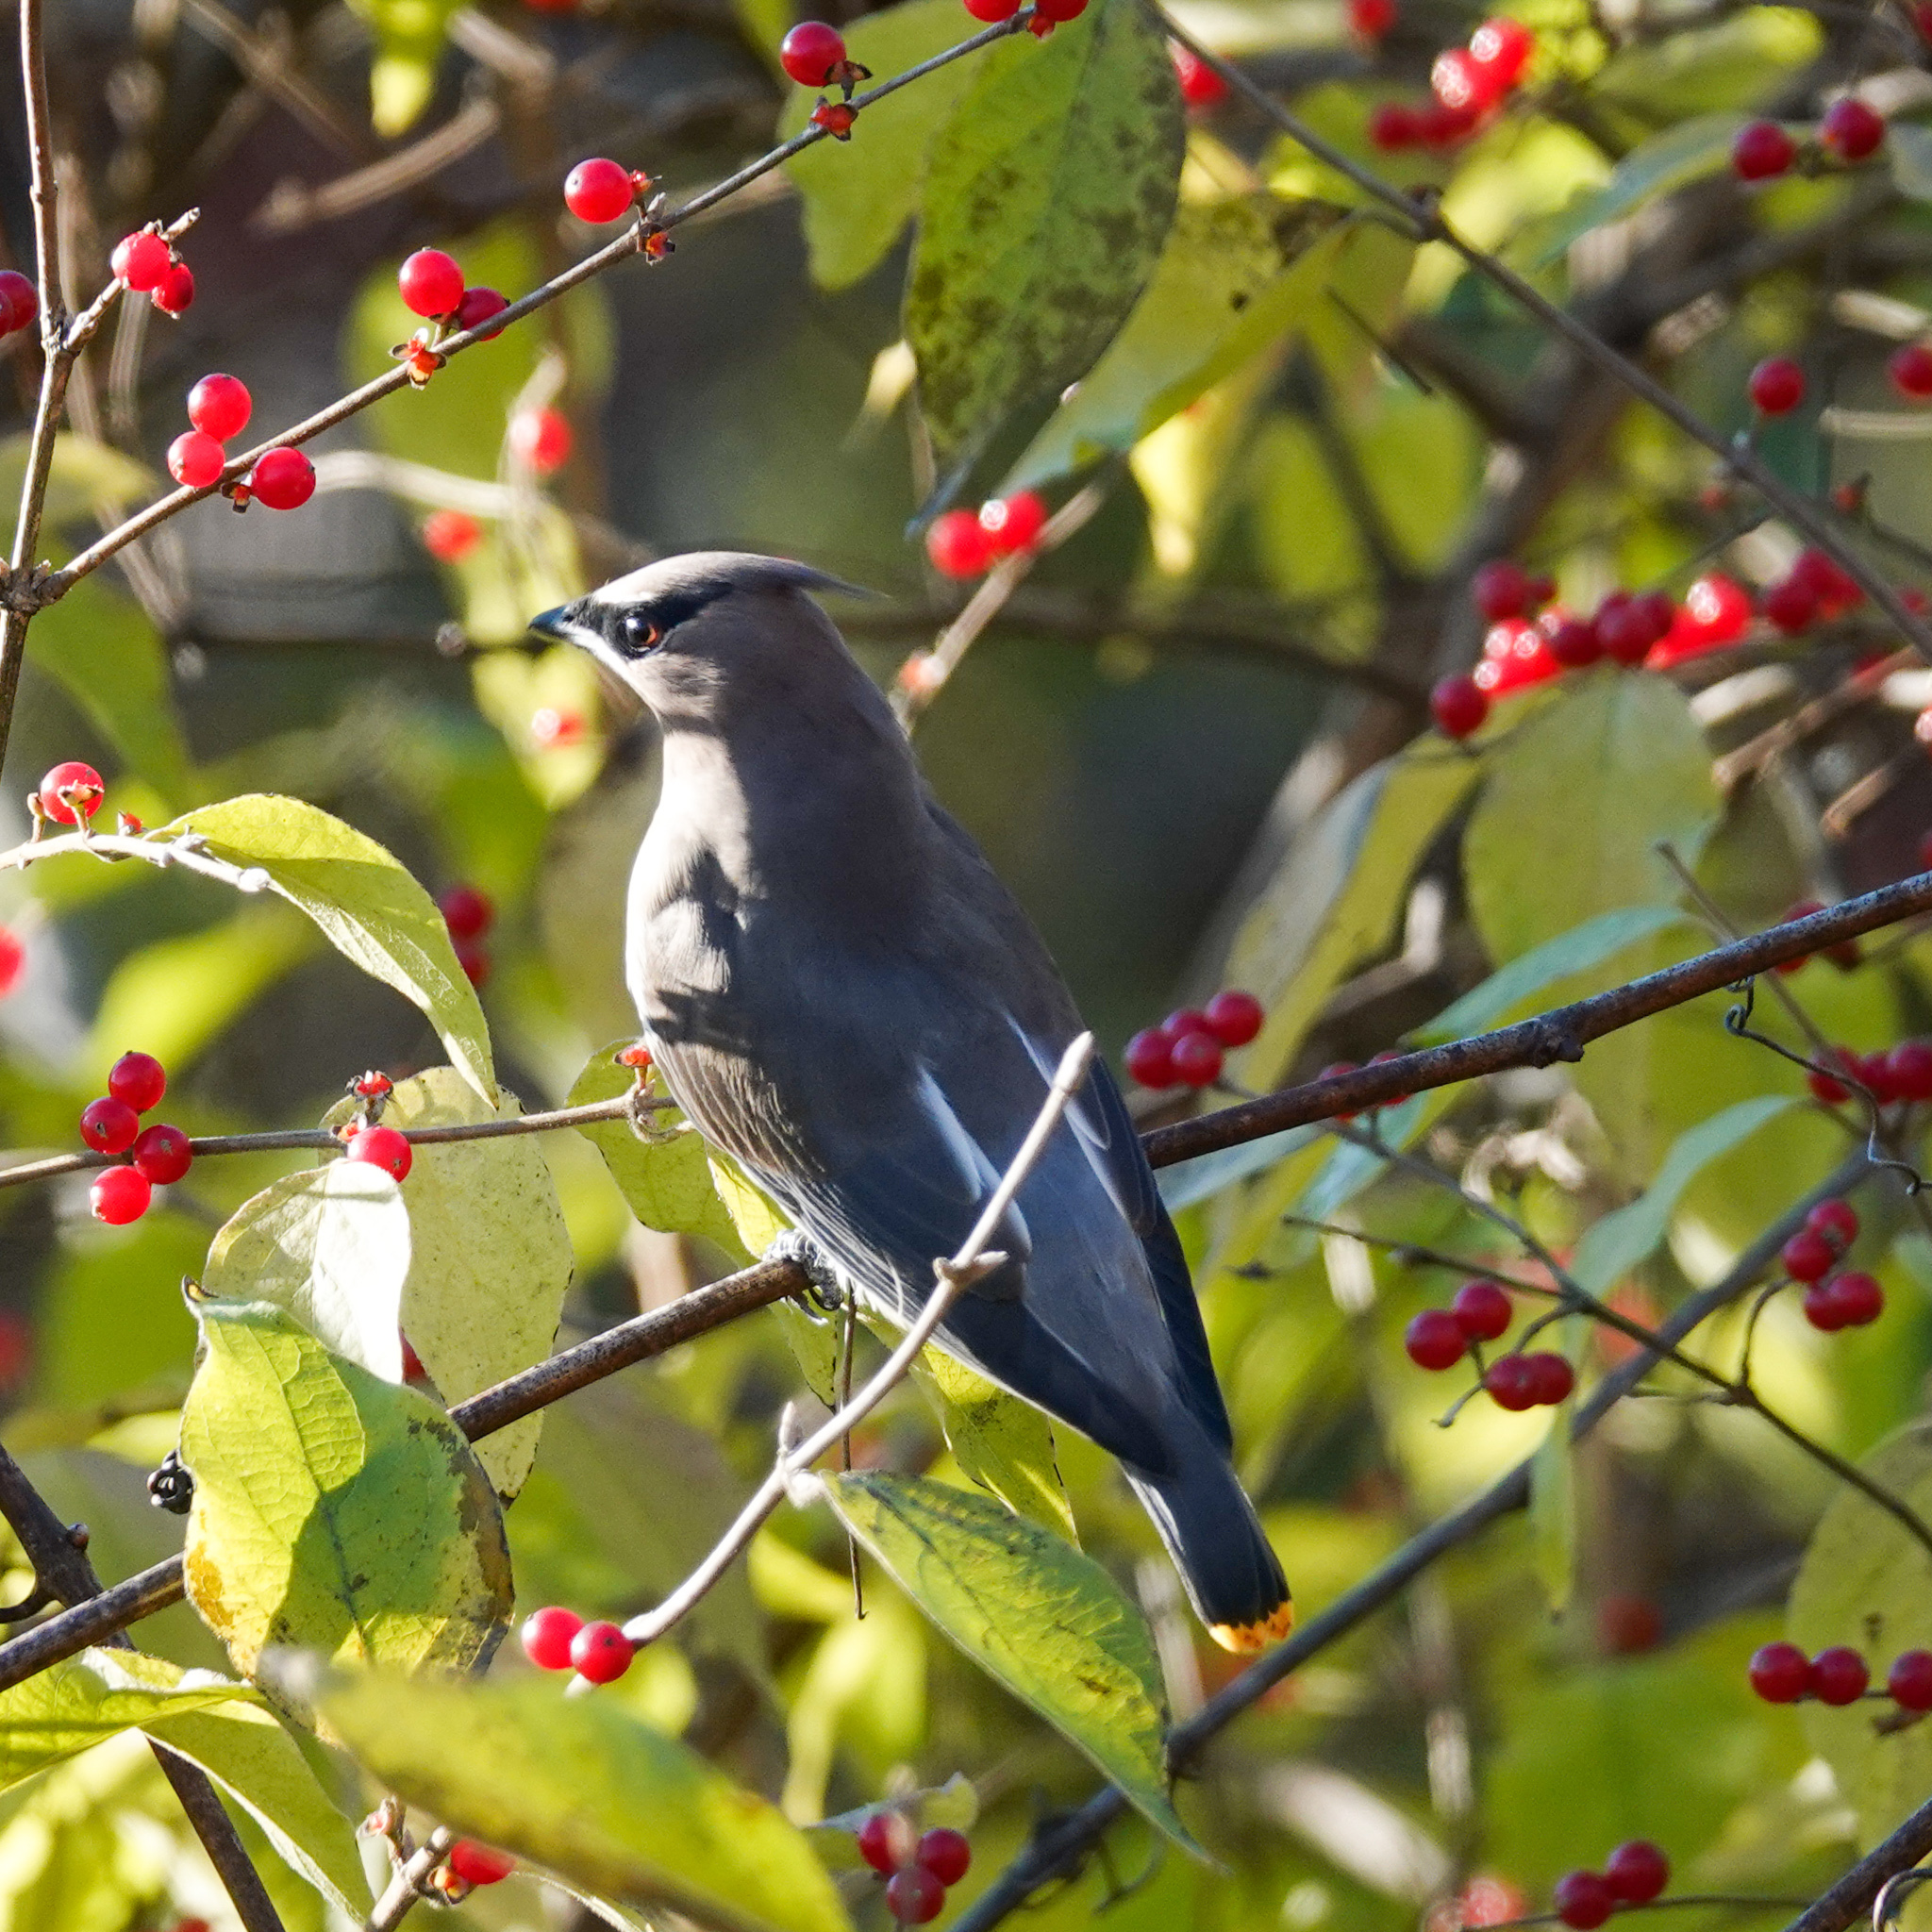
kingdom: Animalia
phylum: Chordata
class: Aves
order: Passeriformes
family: Bombycillidae
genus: Bombycilla
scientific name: Bombycilla cedrorum
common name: Cedar waxwing
